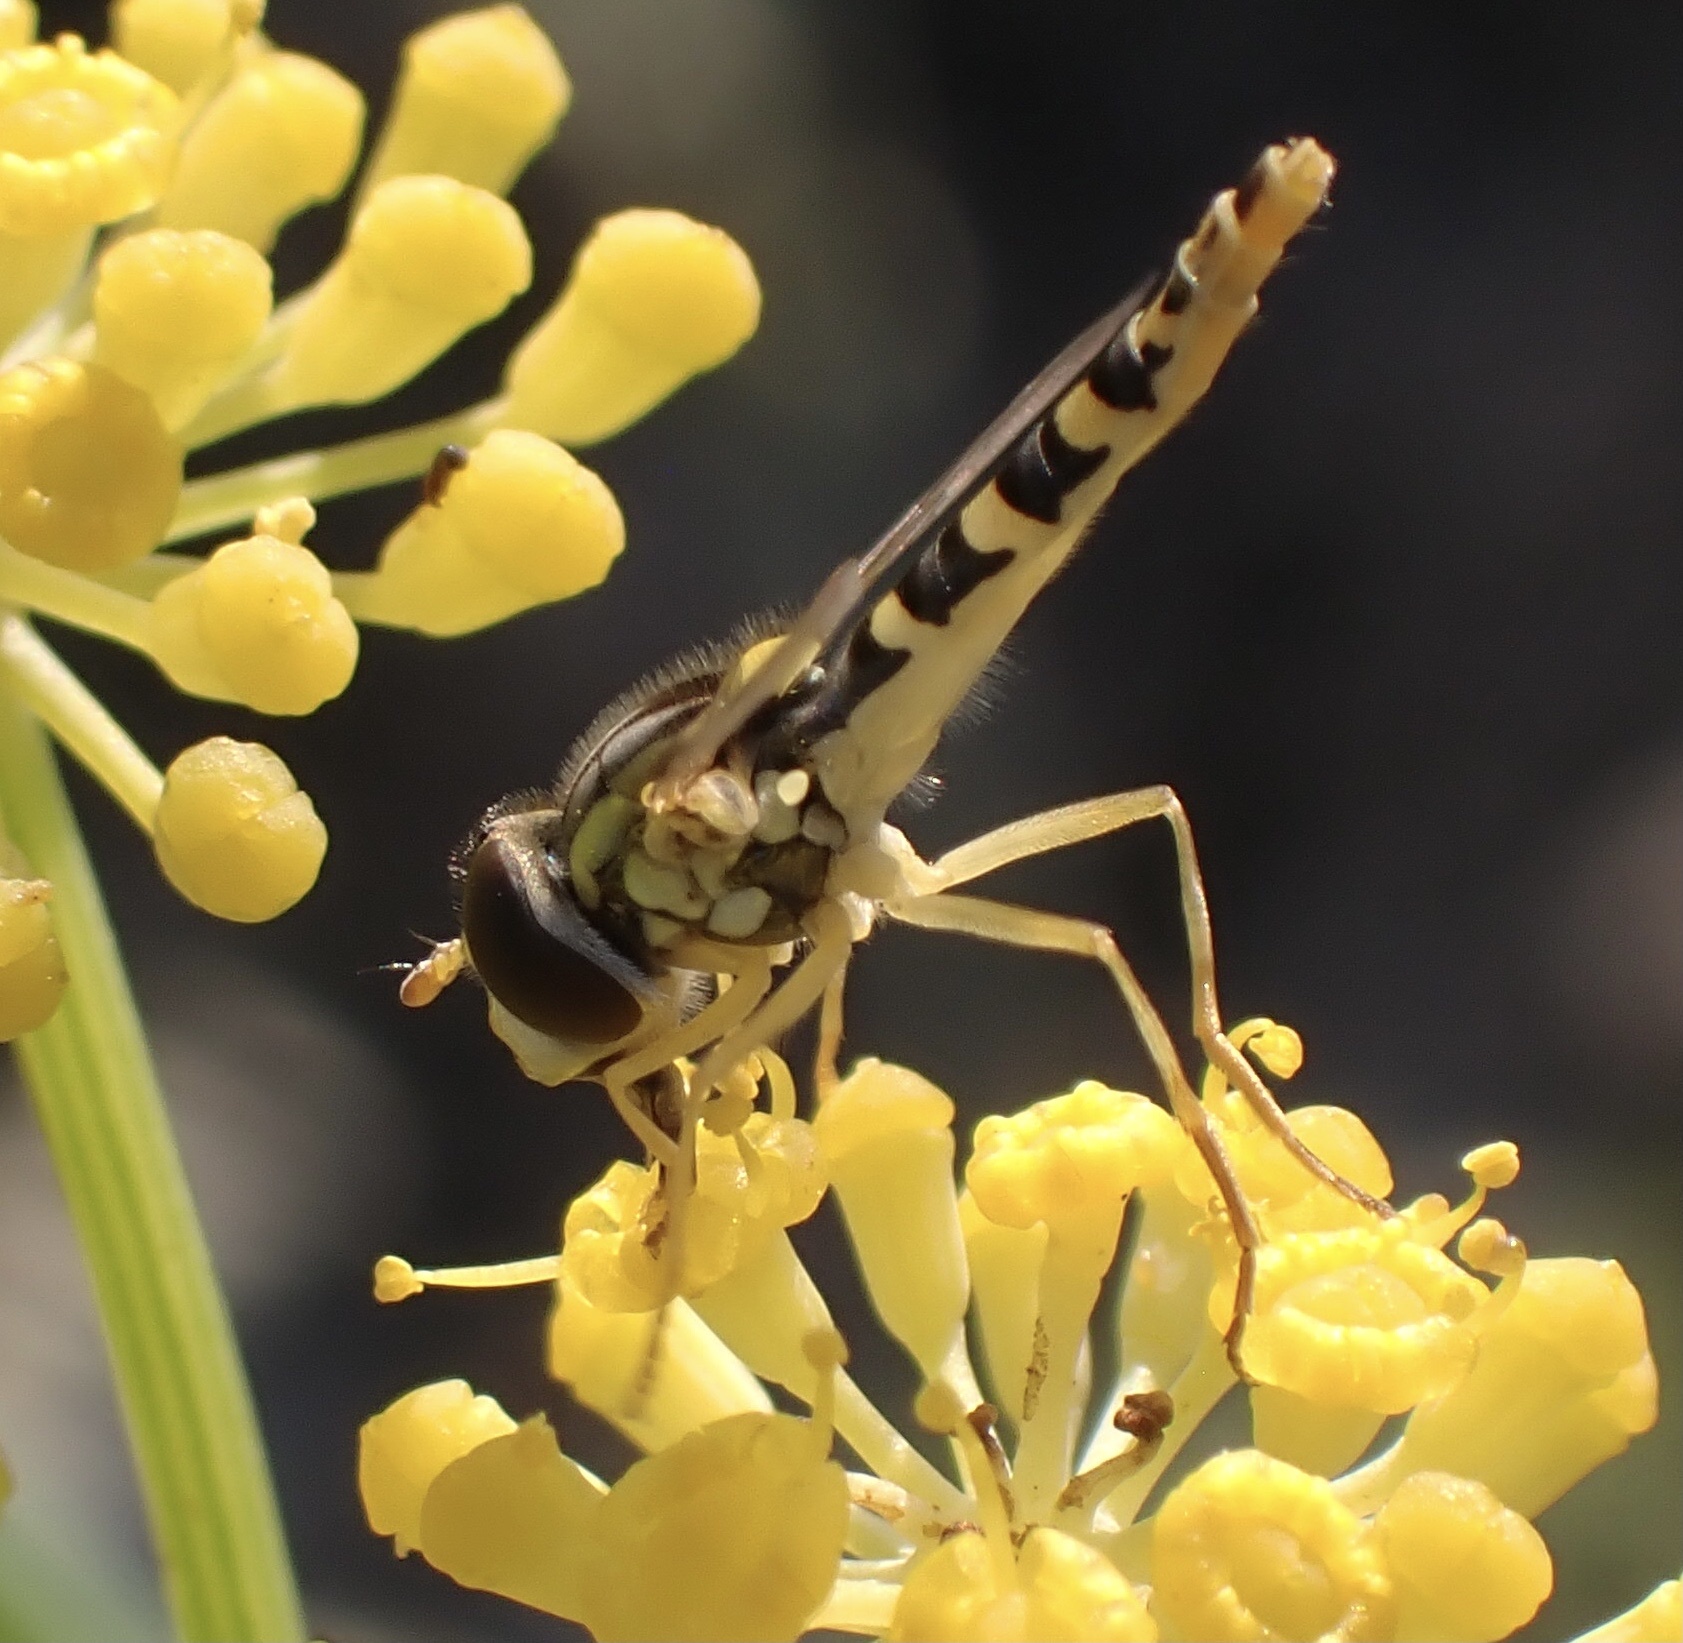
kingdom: Animalia
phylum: Arthropoda
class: Insecta
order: Diptera
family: Syrphidae
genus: Sphaerophoria
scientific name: Sphaerophoria
